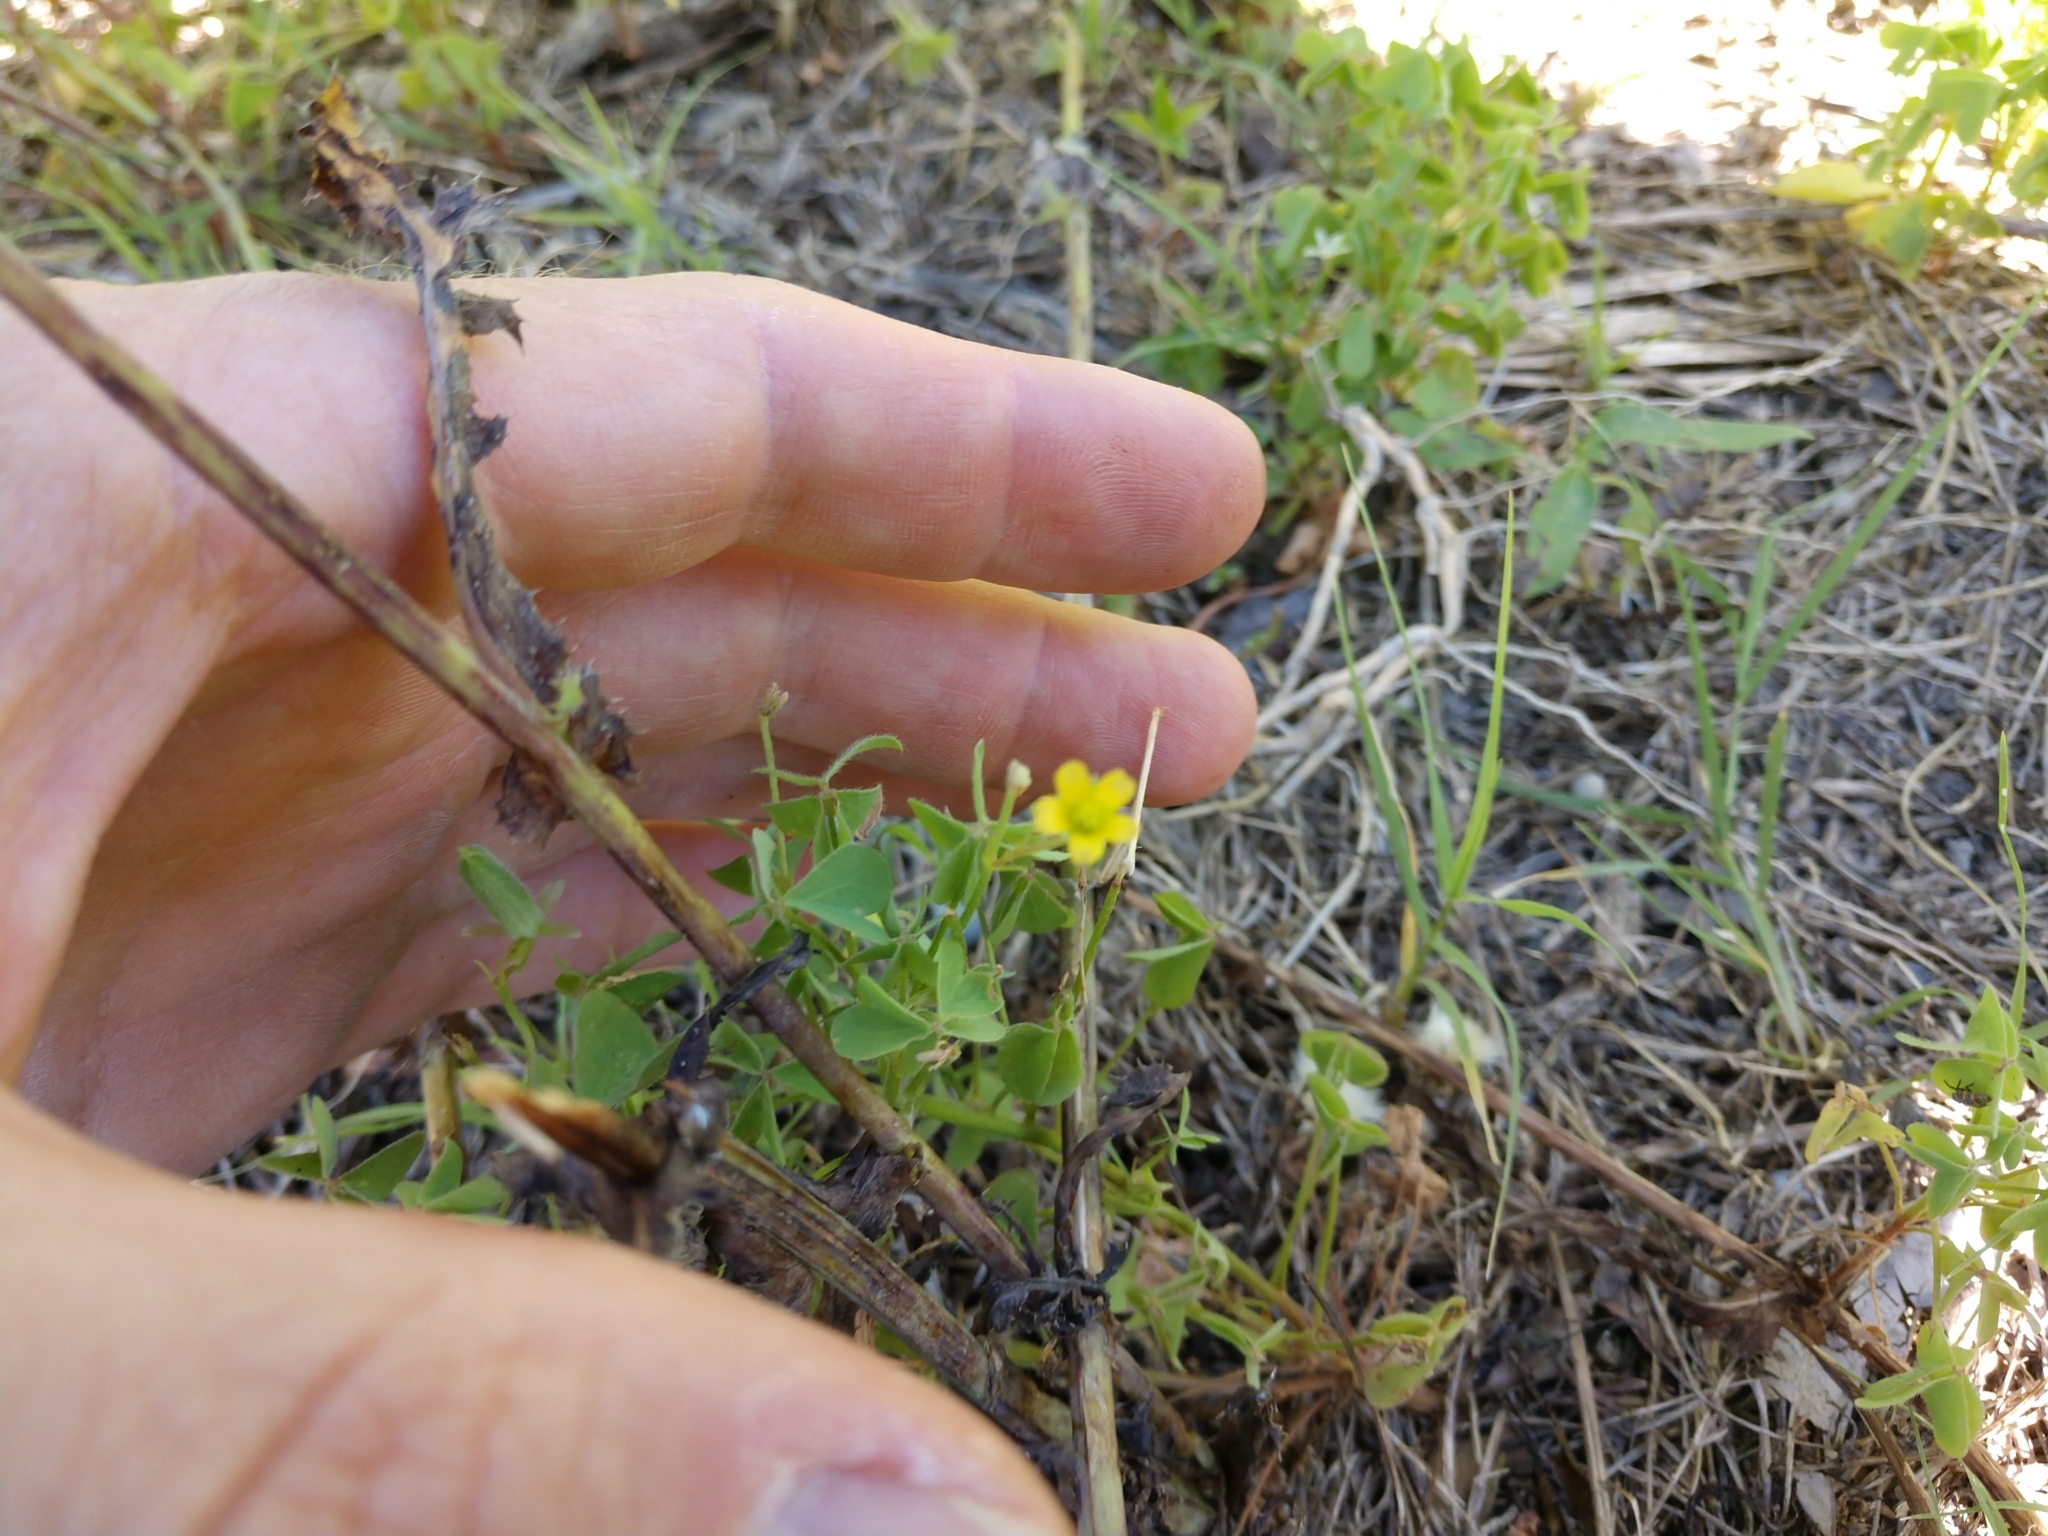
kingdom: Plantae
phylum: Tracheophyta
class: Magnoliopsida
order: Oxalidales
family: Oxalidaceae
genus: Oxalis
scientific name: Oxalis dillenii
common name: Sussex yellow-sorrel
